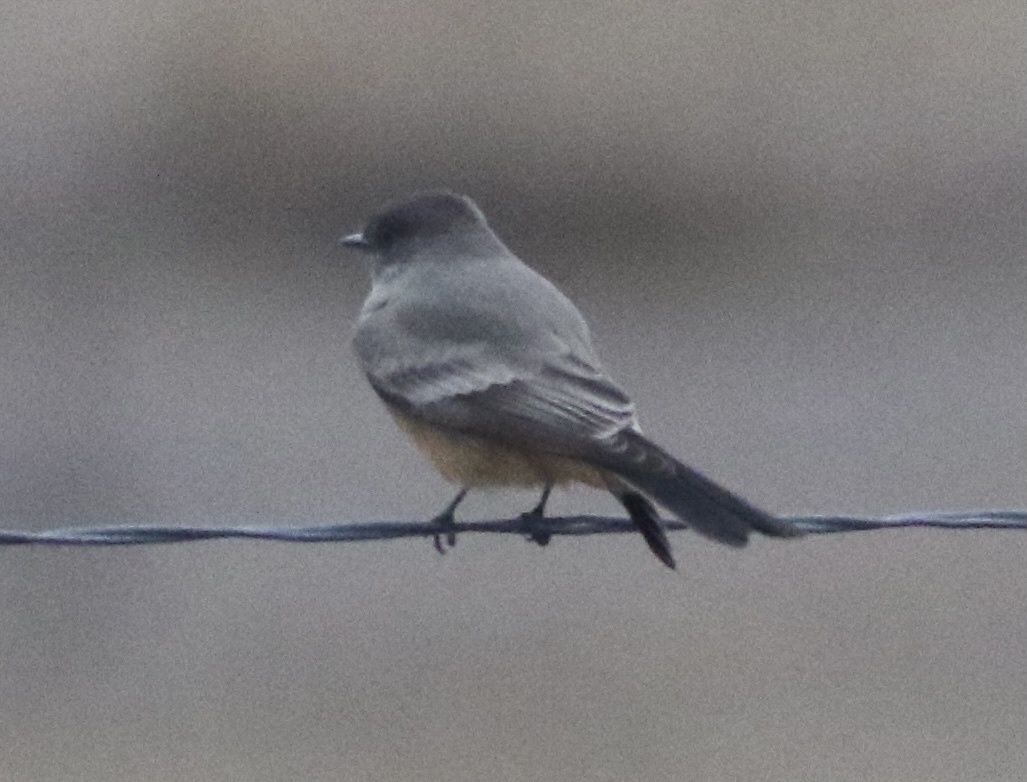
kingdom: Animalia
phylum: Chordata
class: Aves
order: Passeriformes
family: Tyrannidae
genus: Sayornis
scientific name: Sayornis saya
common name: Say's phoebe
